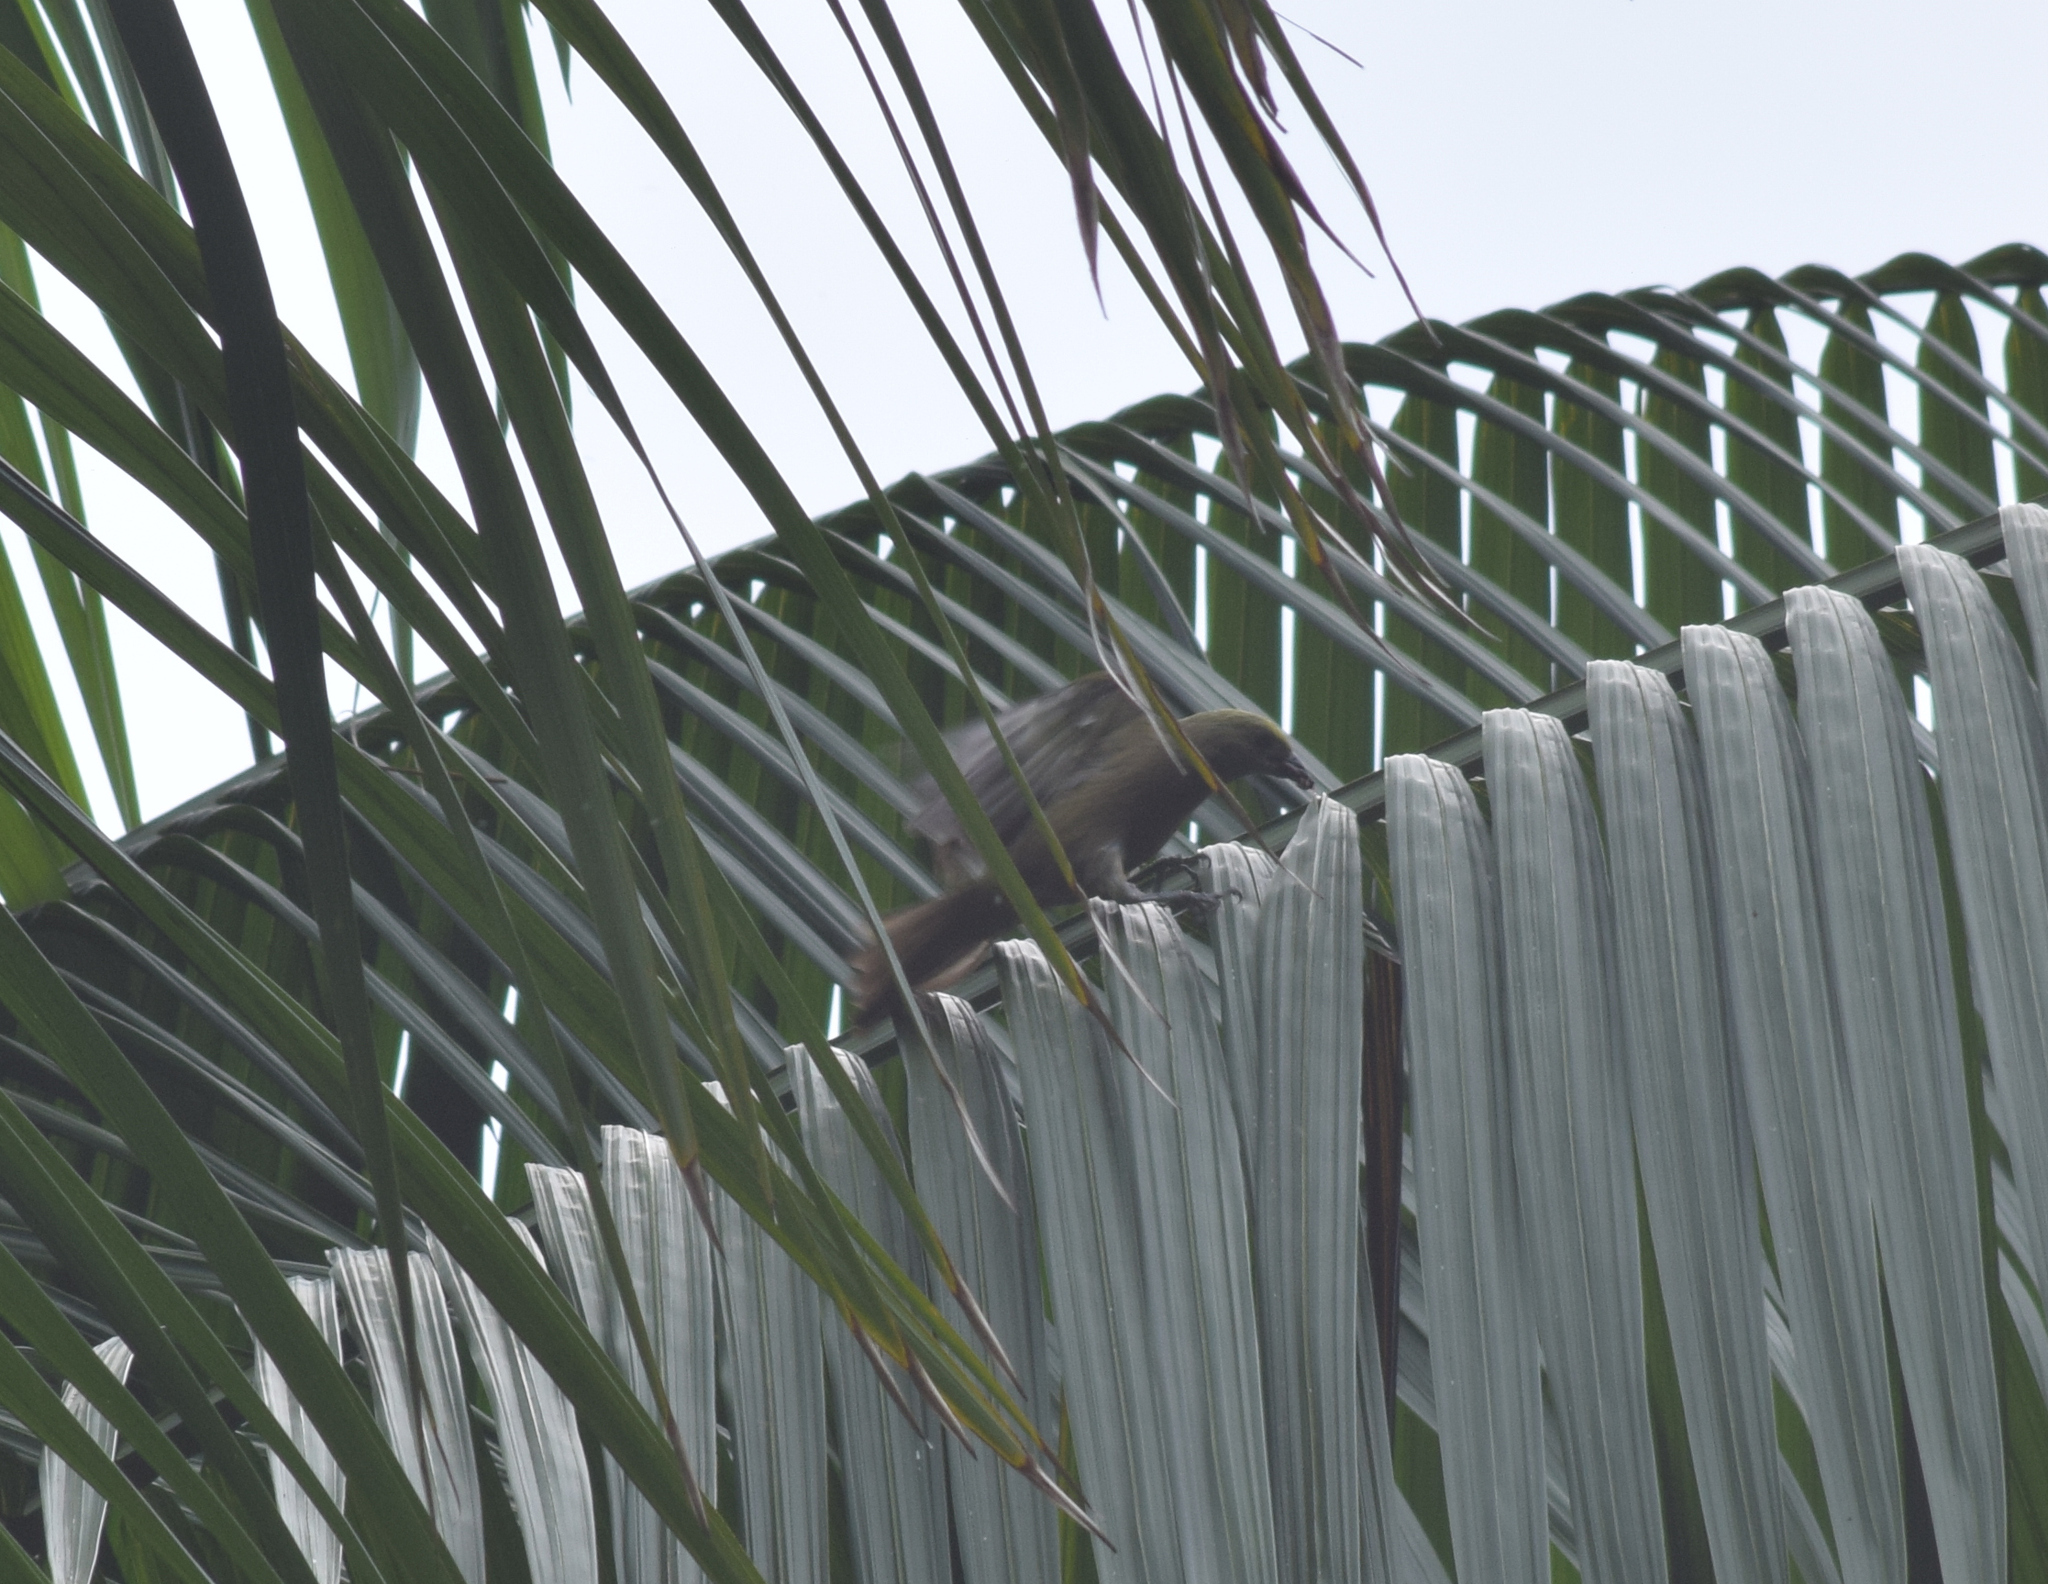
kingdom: Animalia
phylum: Chordata
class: Aves
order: Passeriformes
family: Thraupidae
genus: Thraupis
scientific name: Thraupis palmarum
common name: Palm tanager
